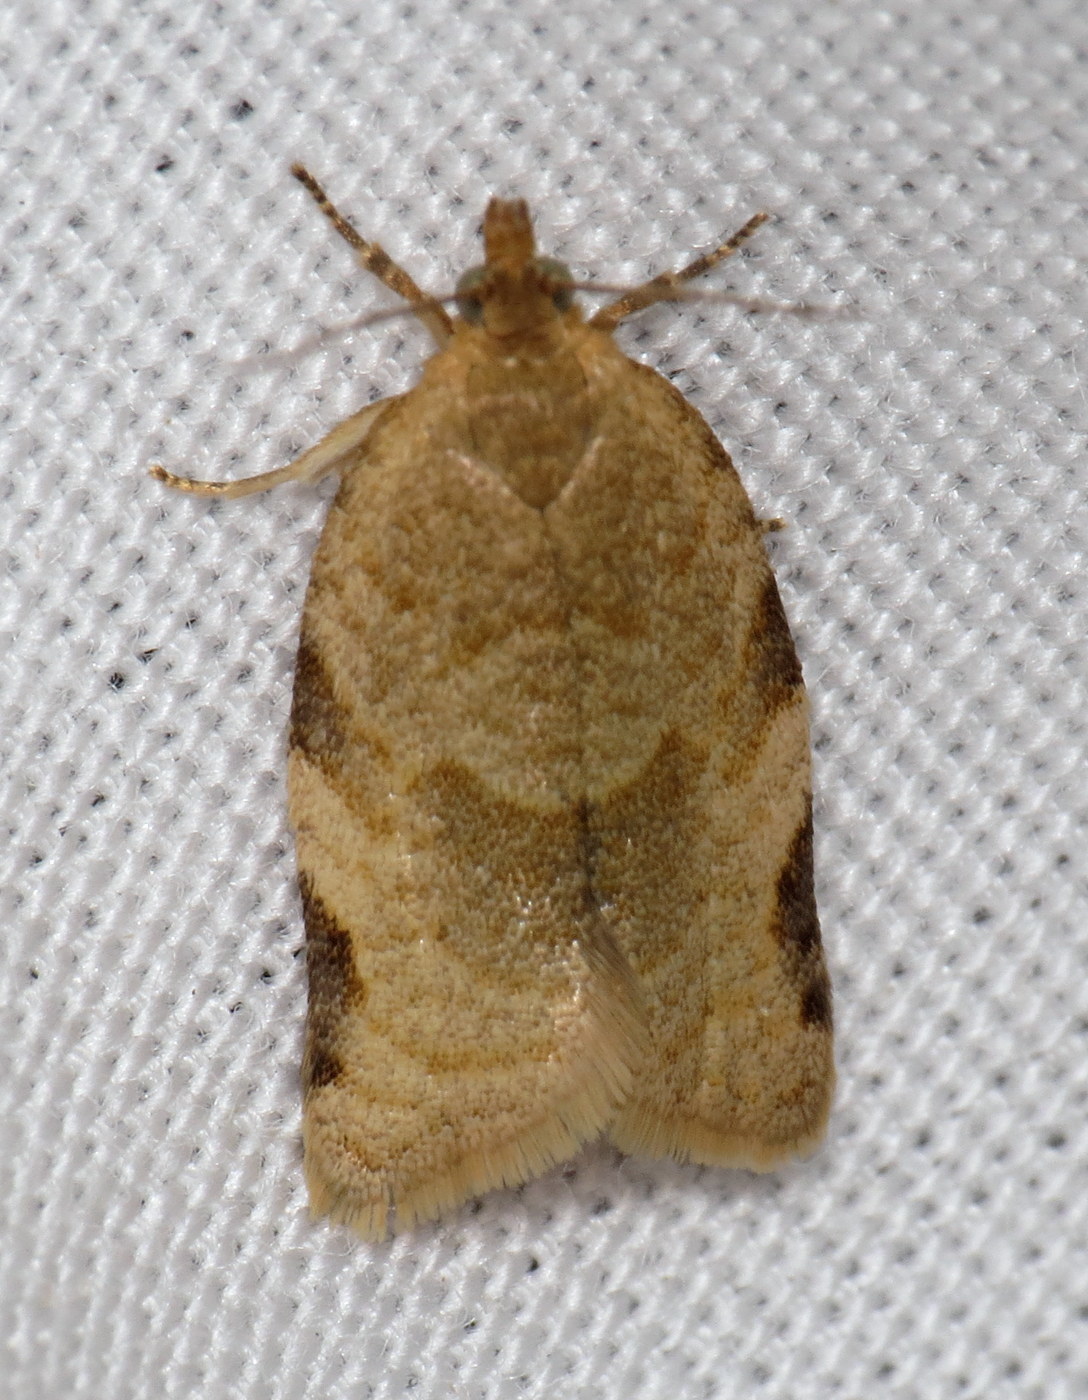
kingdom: Animalia
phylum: Arthropoda
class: Insecta
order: Lepidoptera
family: Tortricidae
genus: Clepsis
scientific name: Clepsis peritana
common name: Garden tortrix
